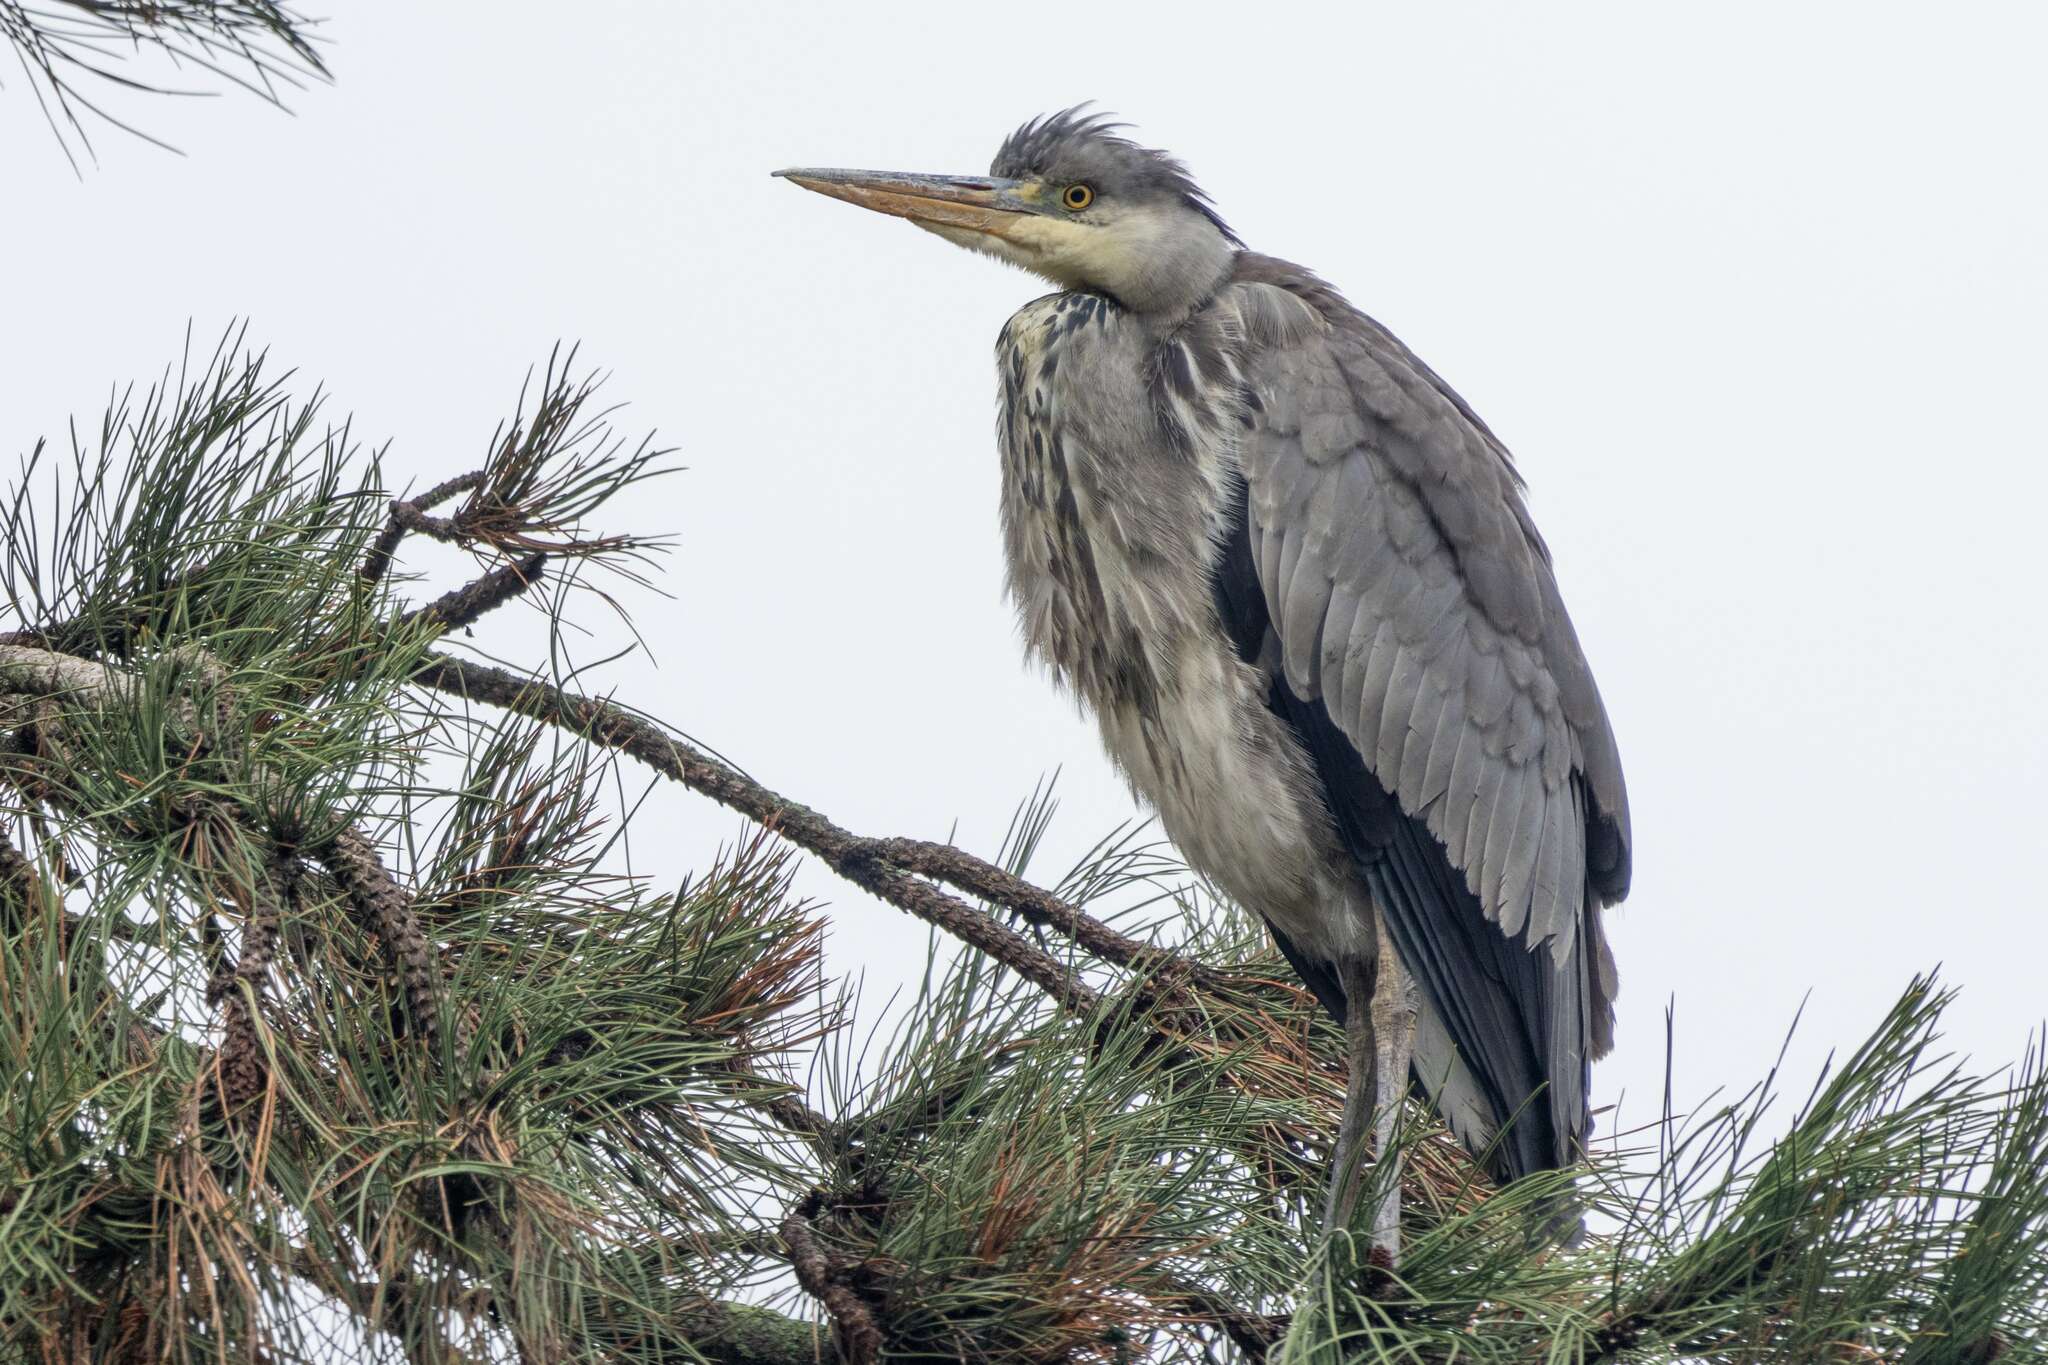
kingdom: Animalia
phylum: Chordata
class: Aves
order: Pelecaniformes
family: Ardeidae
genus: Ardea
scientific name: Ardea cinerea
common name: Grey heron
